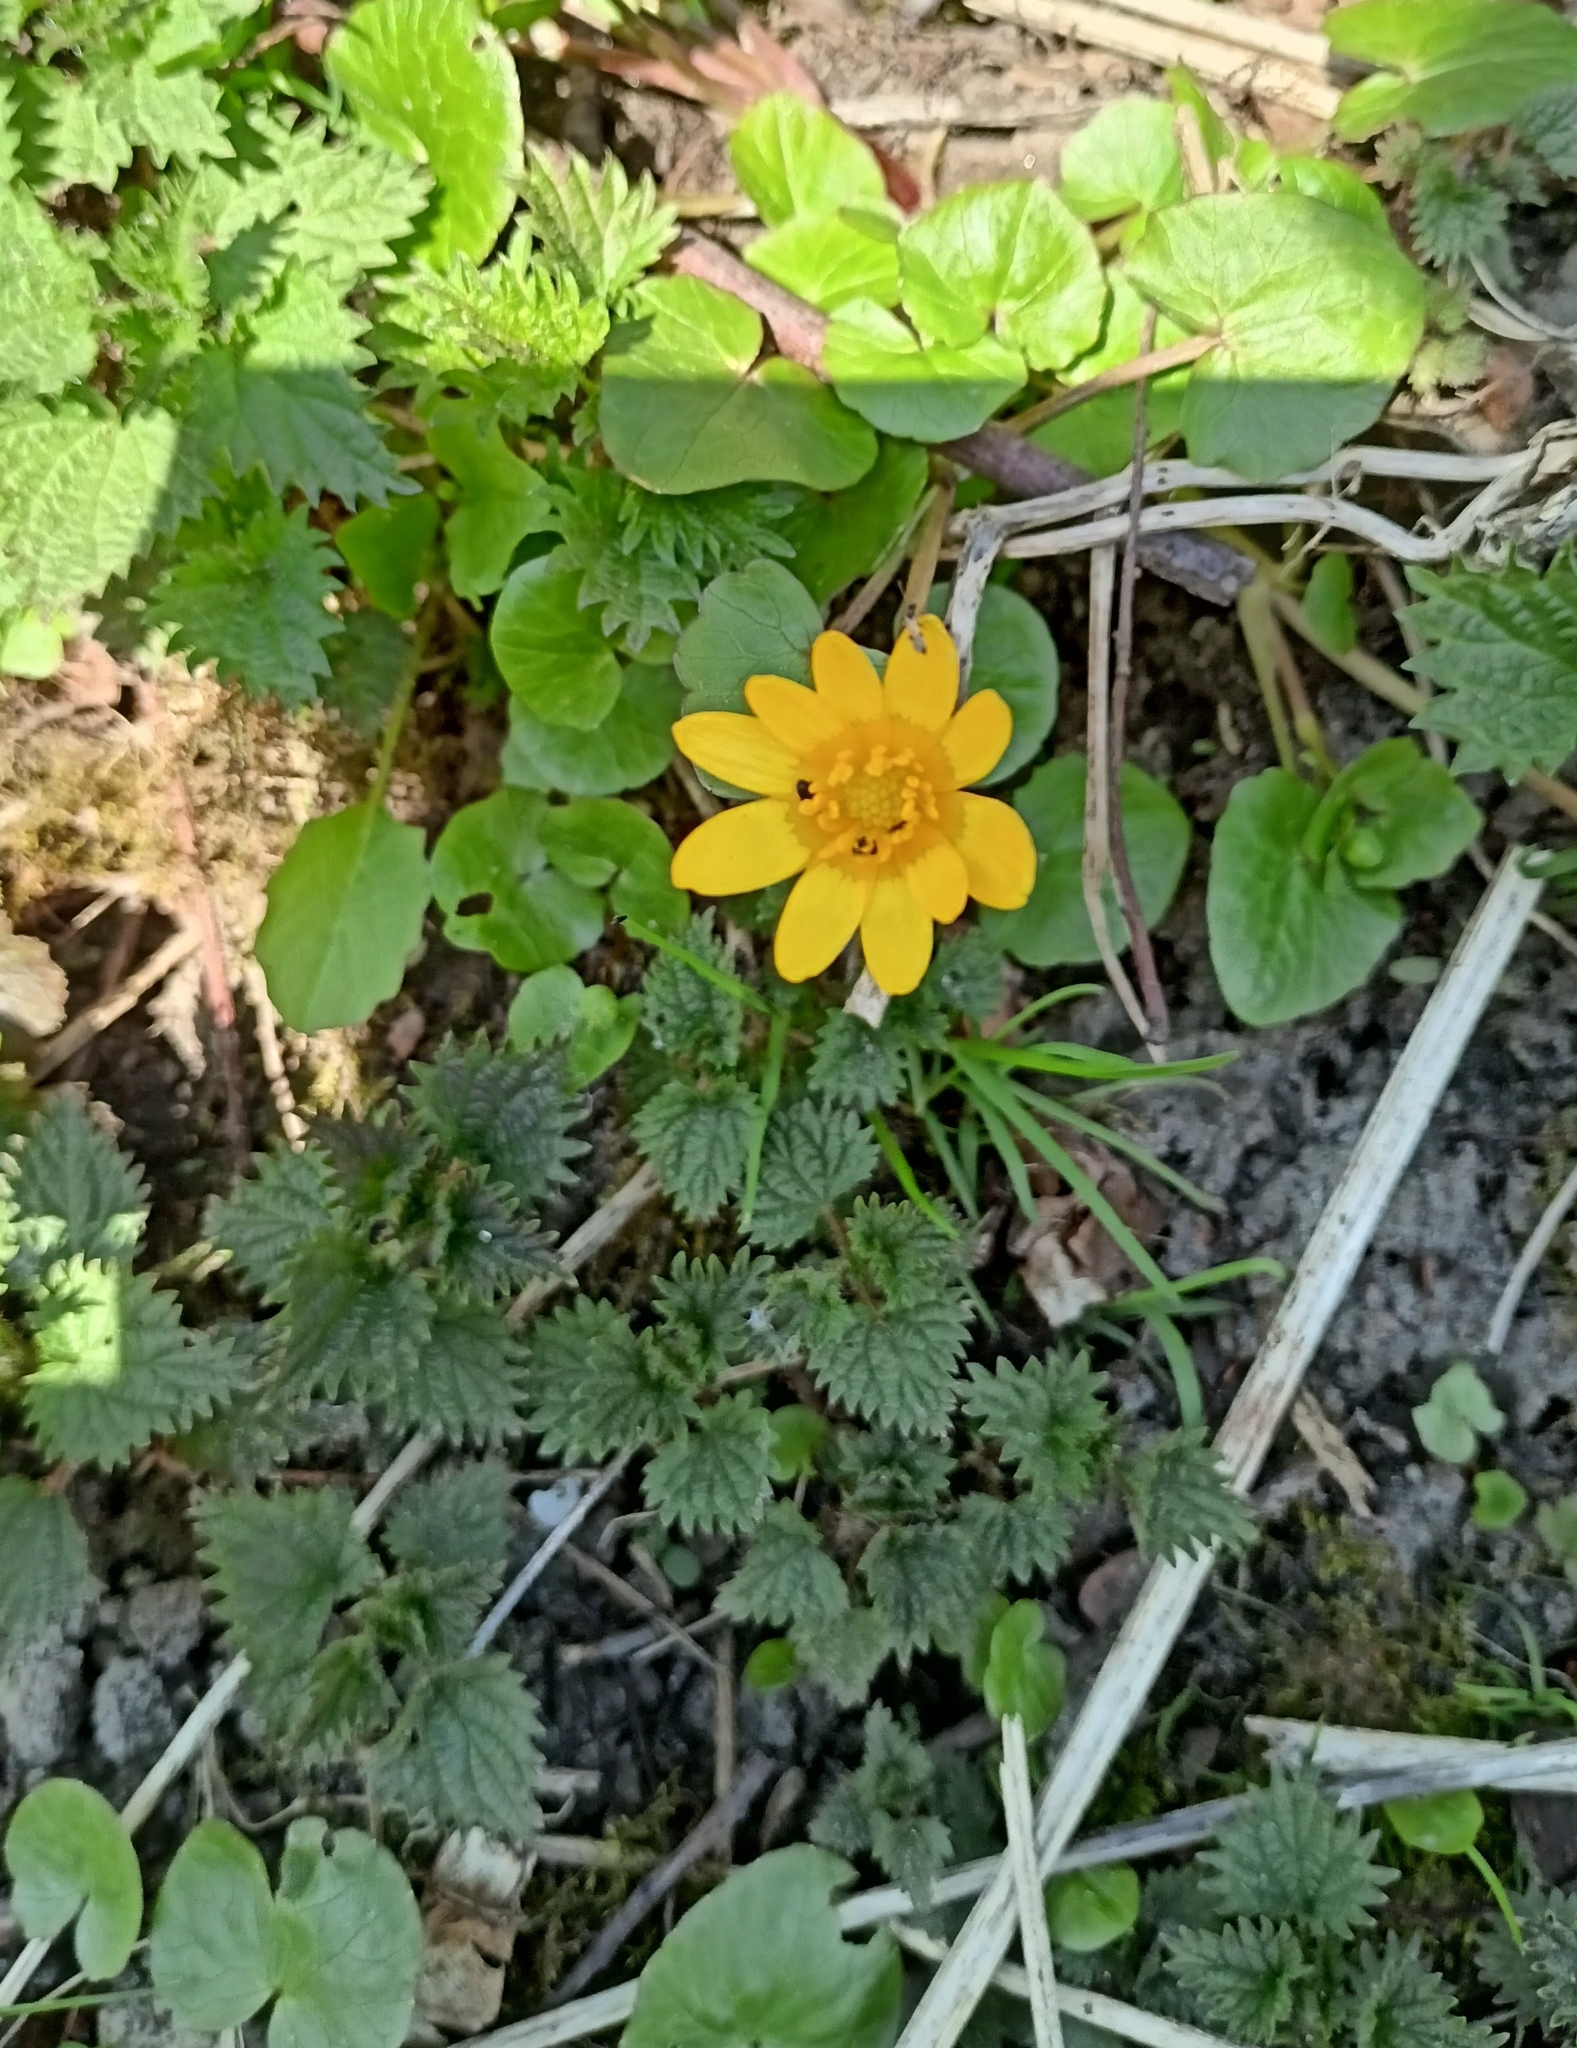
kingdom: Plantae
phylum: Tracheophyta
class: Magnoliopsida
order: Ranunculales
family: Ranunculaceae
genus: Ficaria
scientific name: Ficaria verna
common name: Lesser celandine
